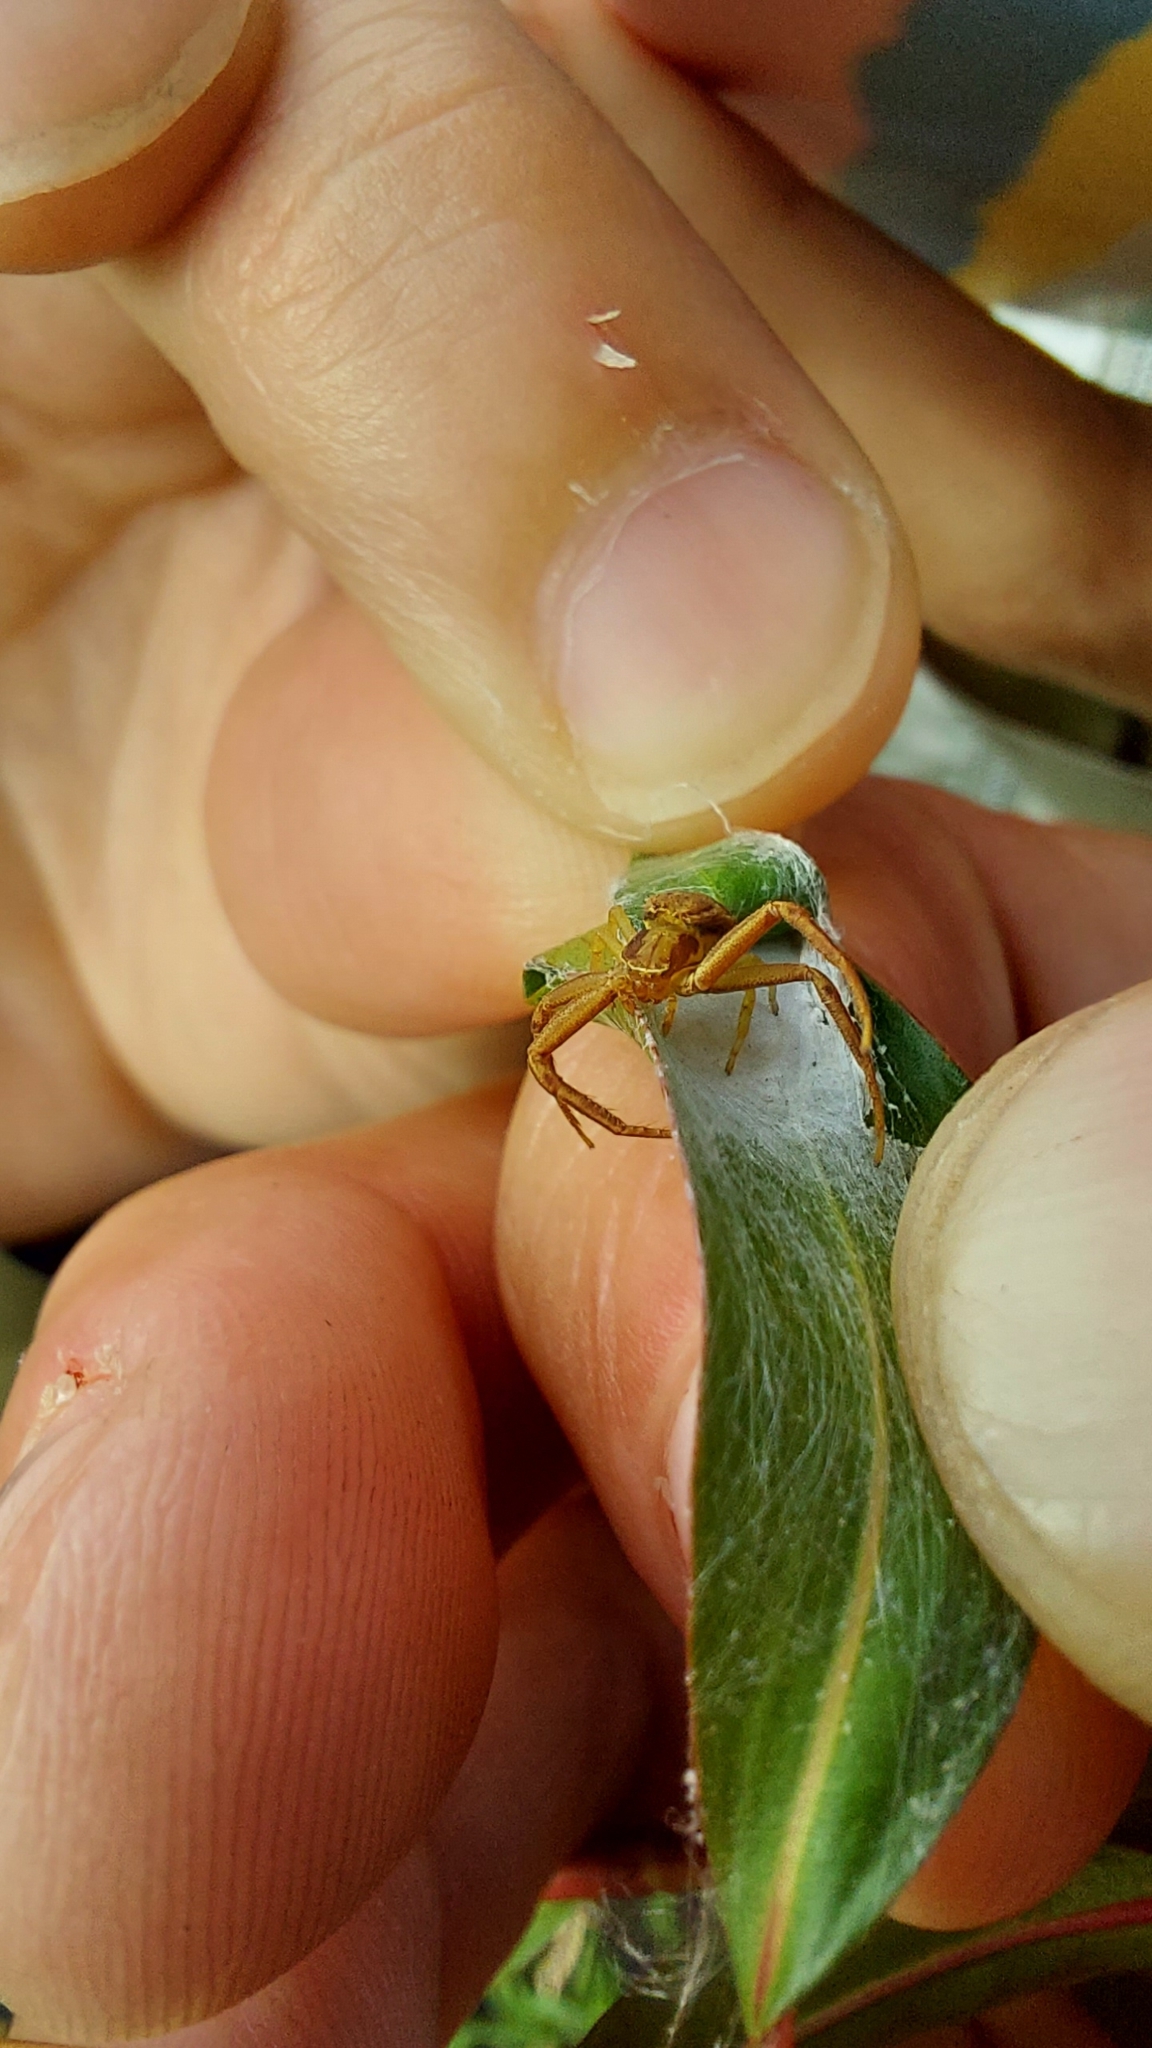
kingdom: Animalia
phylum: Arthropoda
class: Arachnida
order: Araneae
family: Thomisidae
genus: Uraarachne
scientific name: Uraarachne variegata
